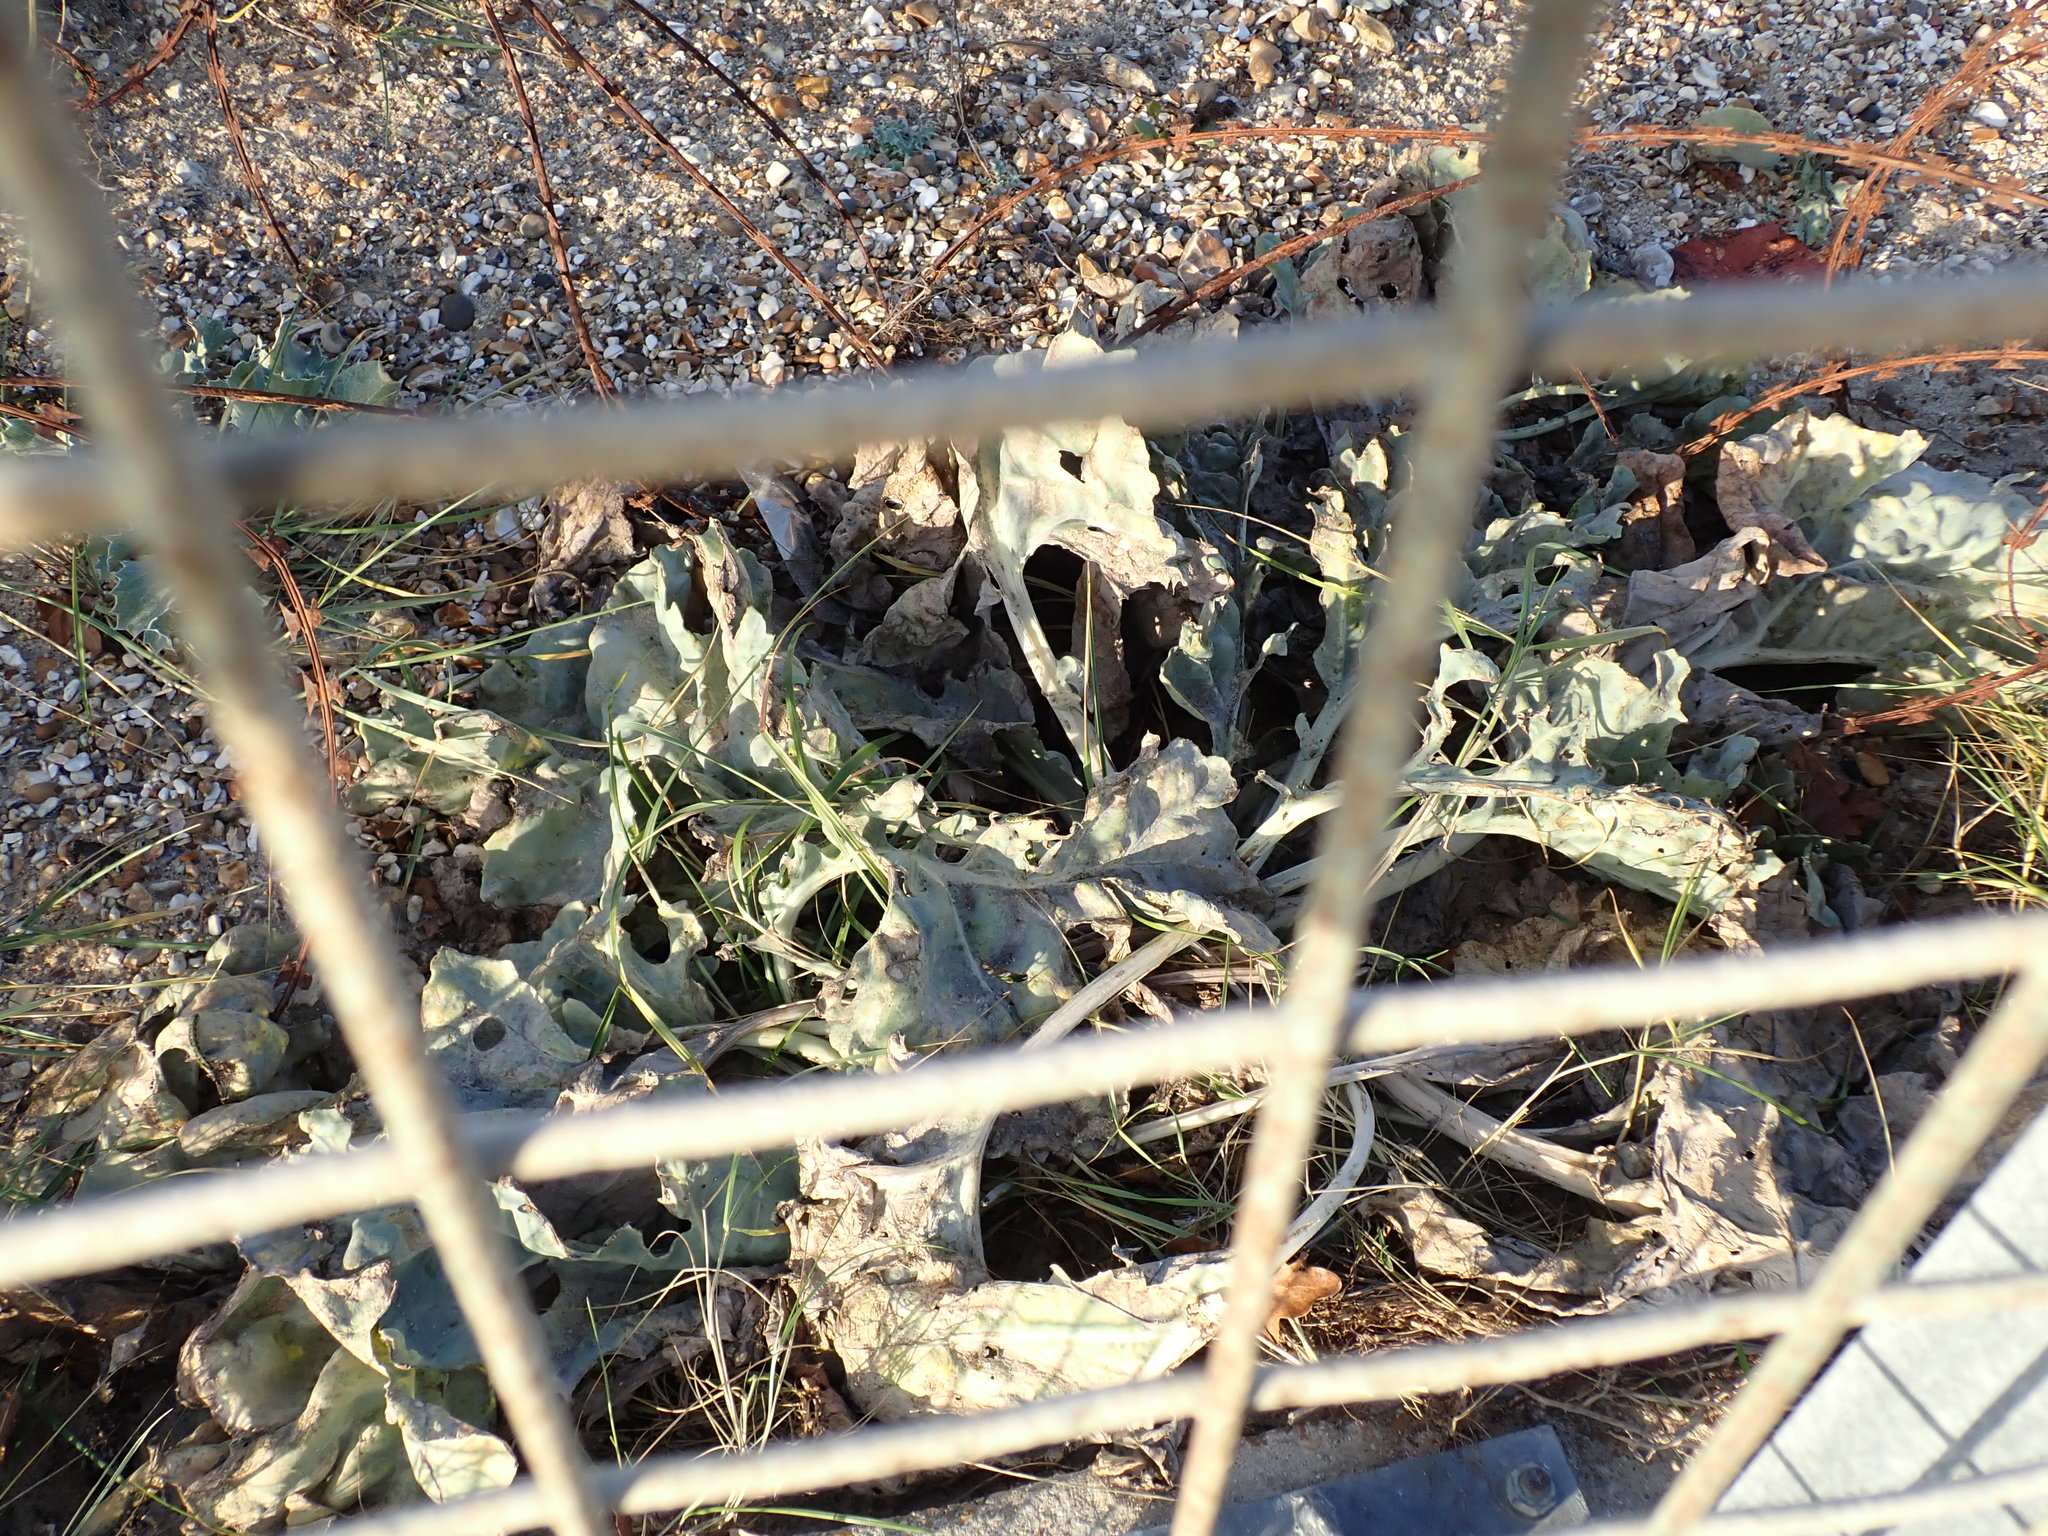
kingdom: Plantae
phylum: Tracheophyta
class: Magnoliopsida
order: Brassicales
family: Brassicaceae
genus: Crambe
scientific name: Crambe maritima
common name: Sea-kale
